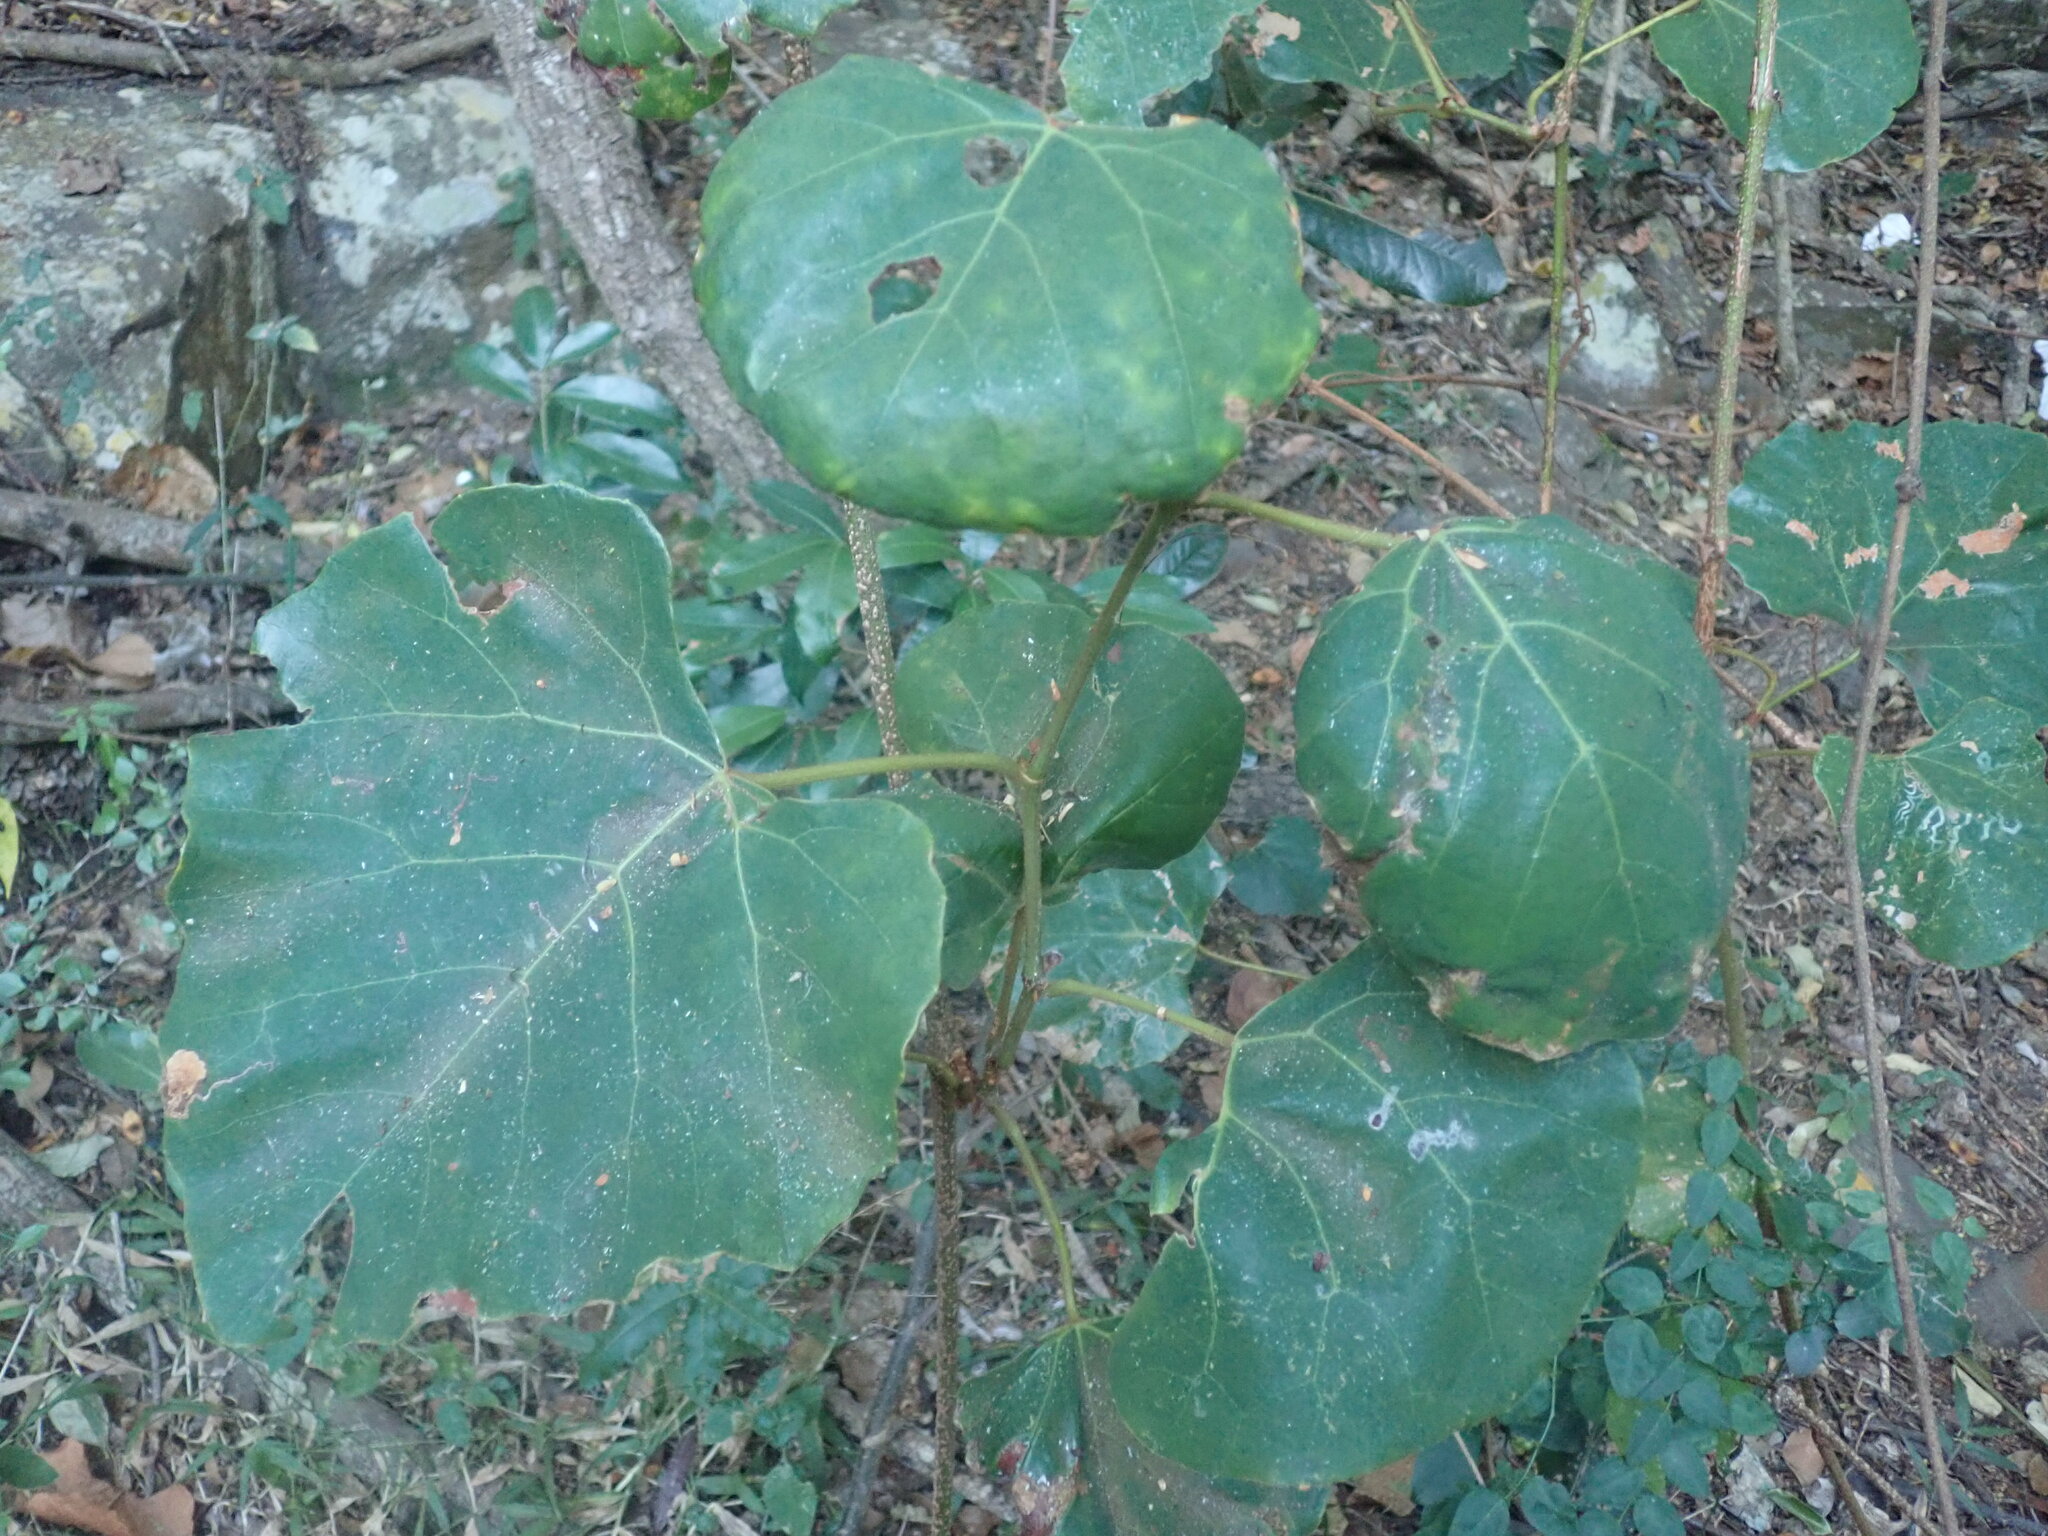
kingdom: Plantae
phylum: Tracheophyta
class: Magnoliopsida
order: Vitales
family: Vitaceae
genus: Rhoicissus
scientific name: Rhoicissus tomentosa
